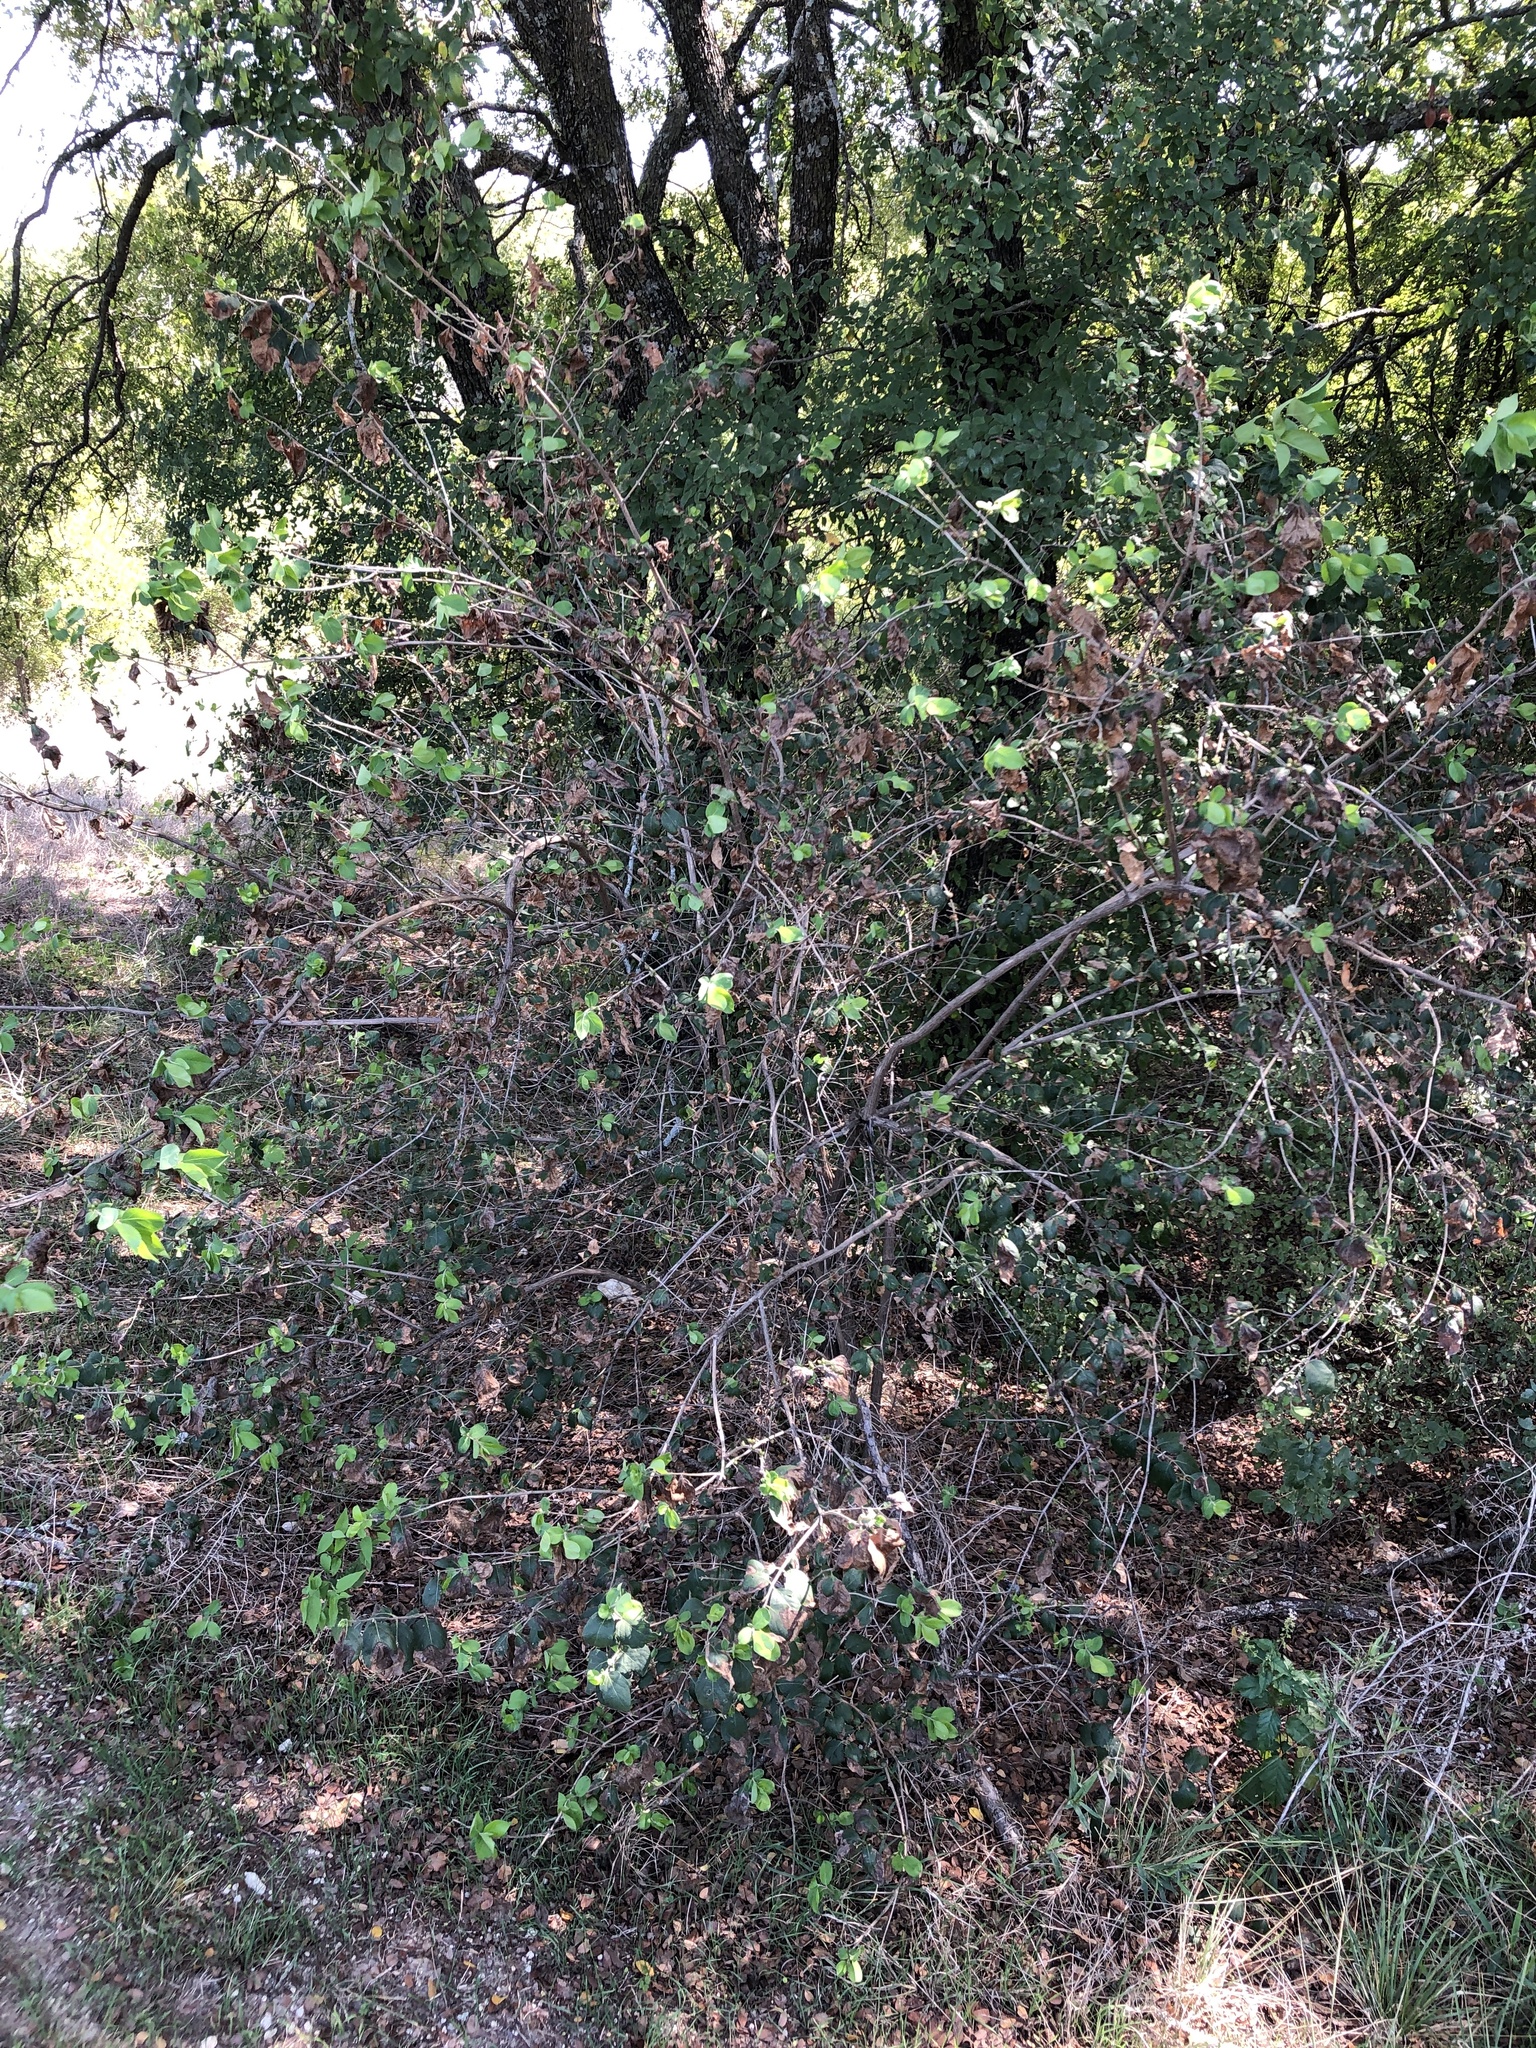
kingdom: Plantae
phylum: Tracheophyta
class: Magnoliopsida
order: Dipsacales
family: Caprifoliaceae
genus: Lonicera
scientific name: Lonicera maackii
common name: Amur honeysuckle
